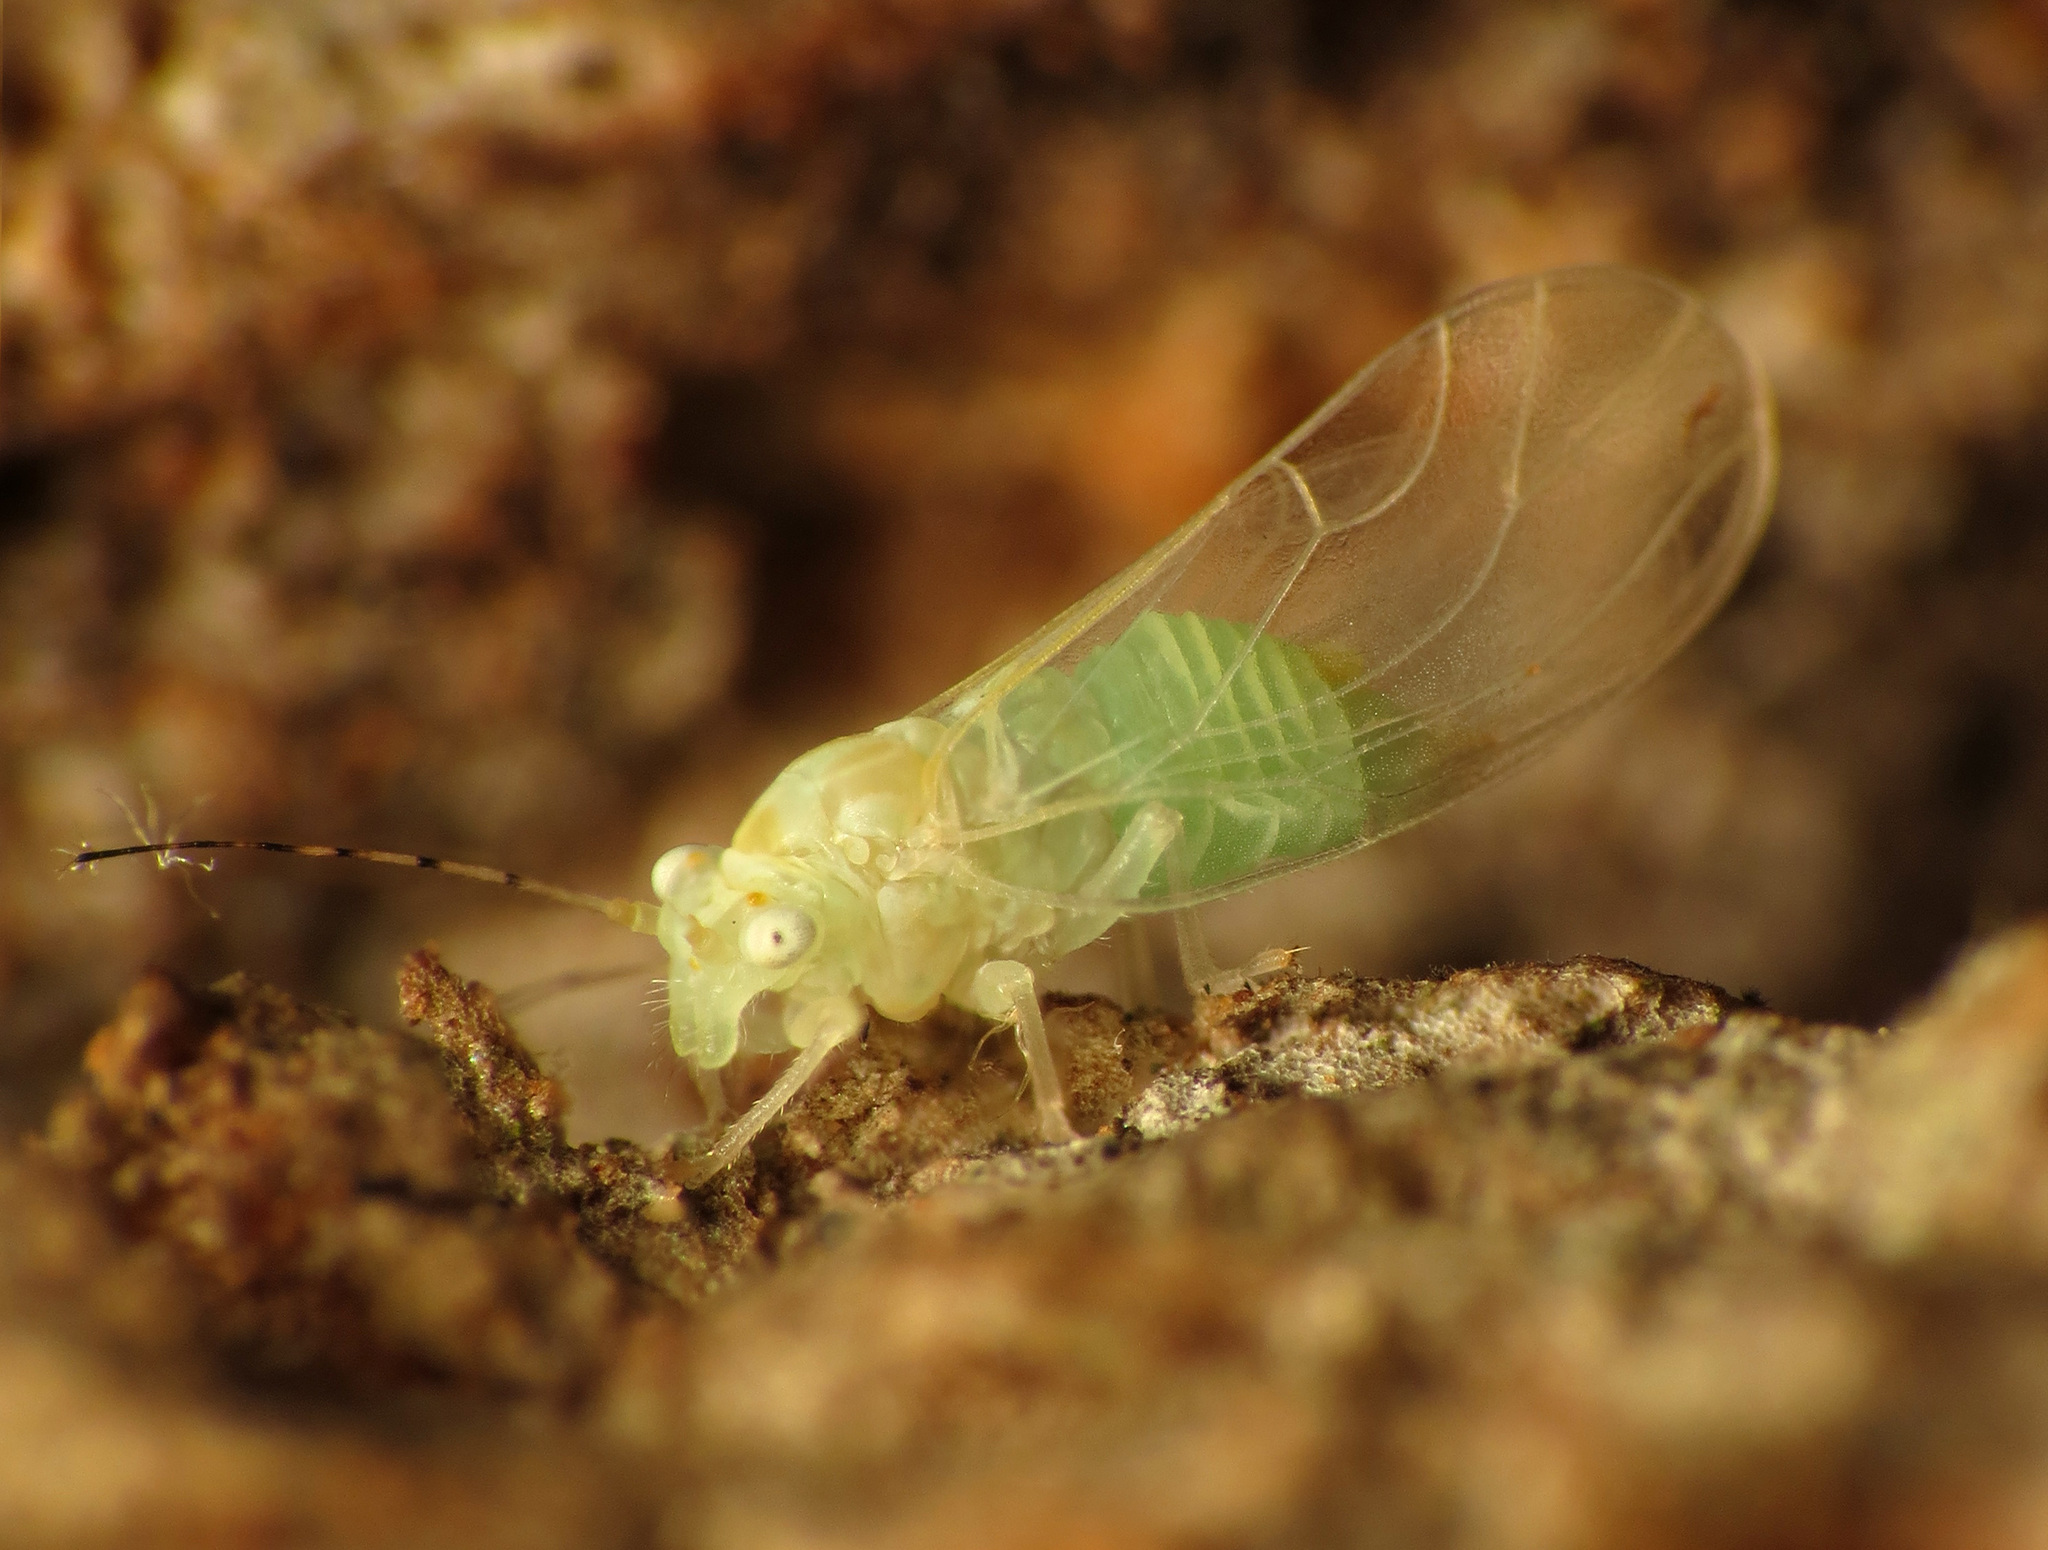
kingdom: Animalia
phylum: Arthropoda
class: Insecta
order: Hemiptera
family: Psyllidae
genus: Cacopsylla
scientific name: Cacopsylla annulata
